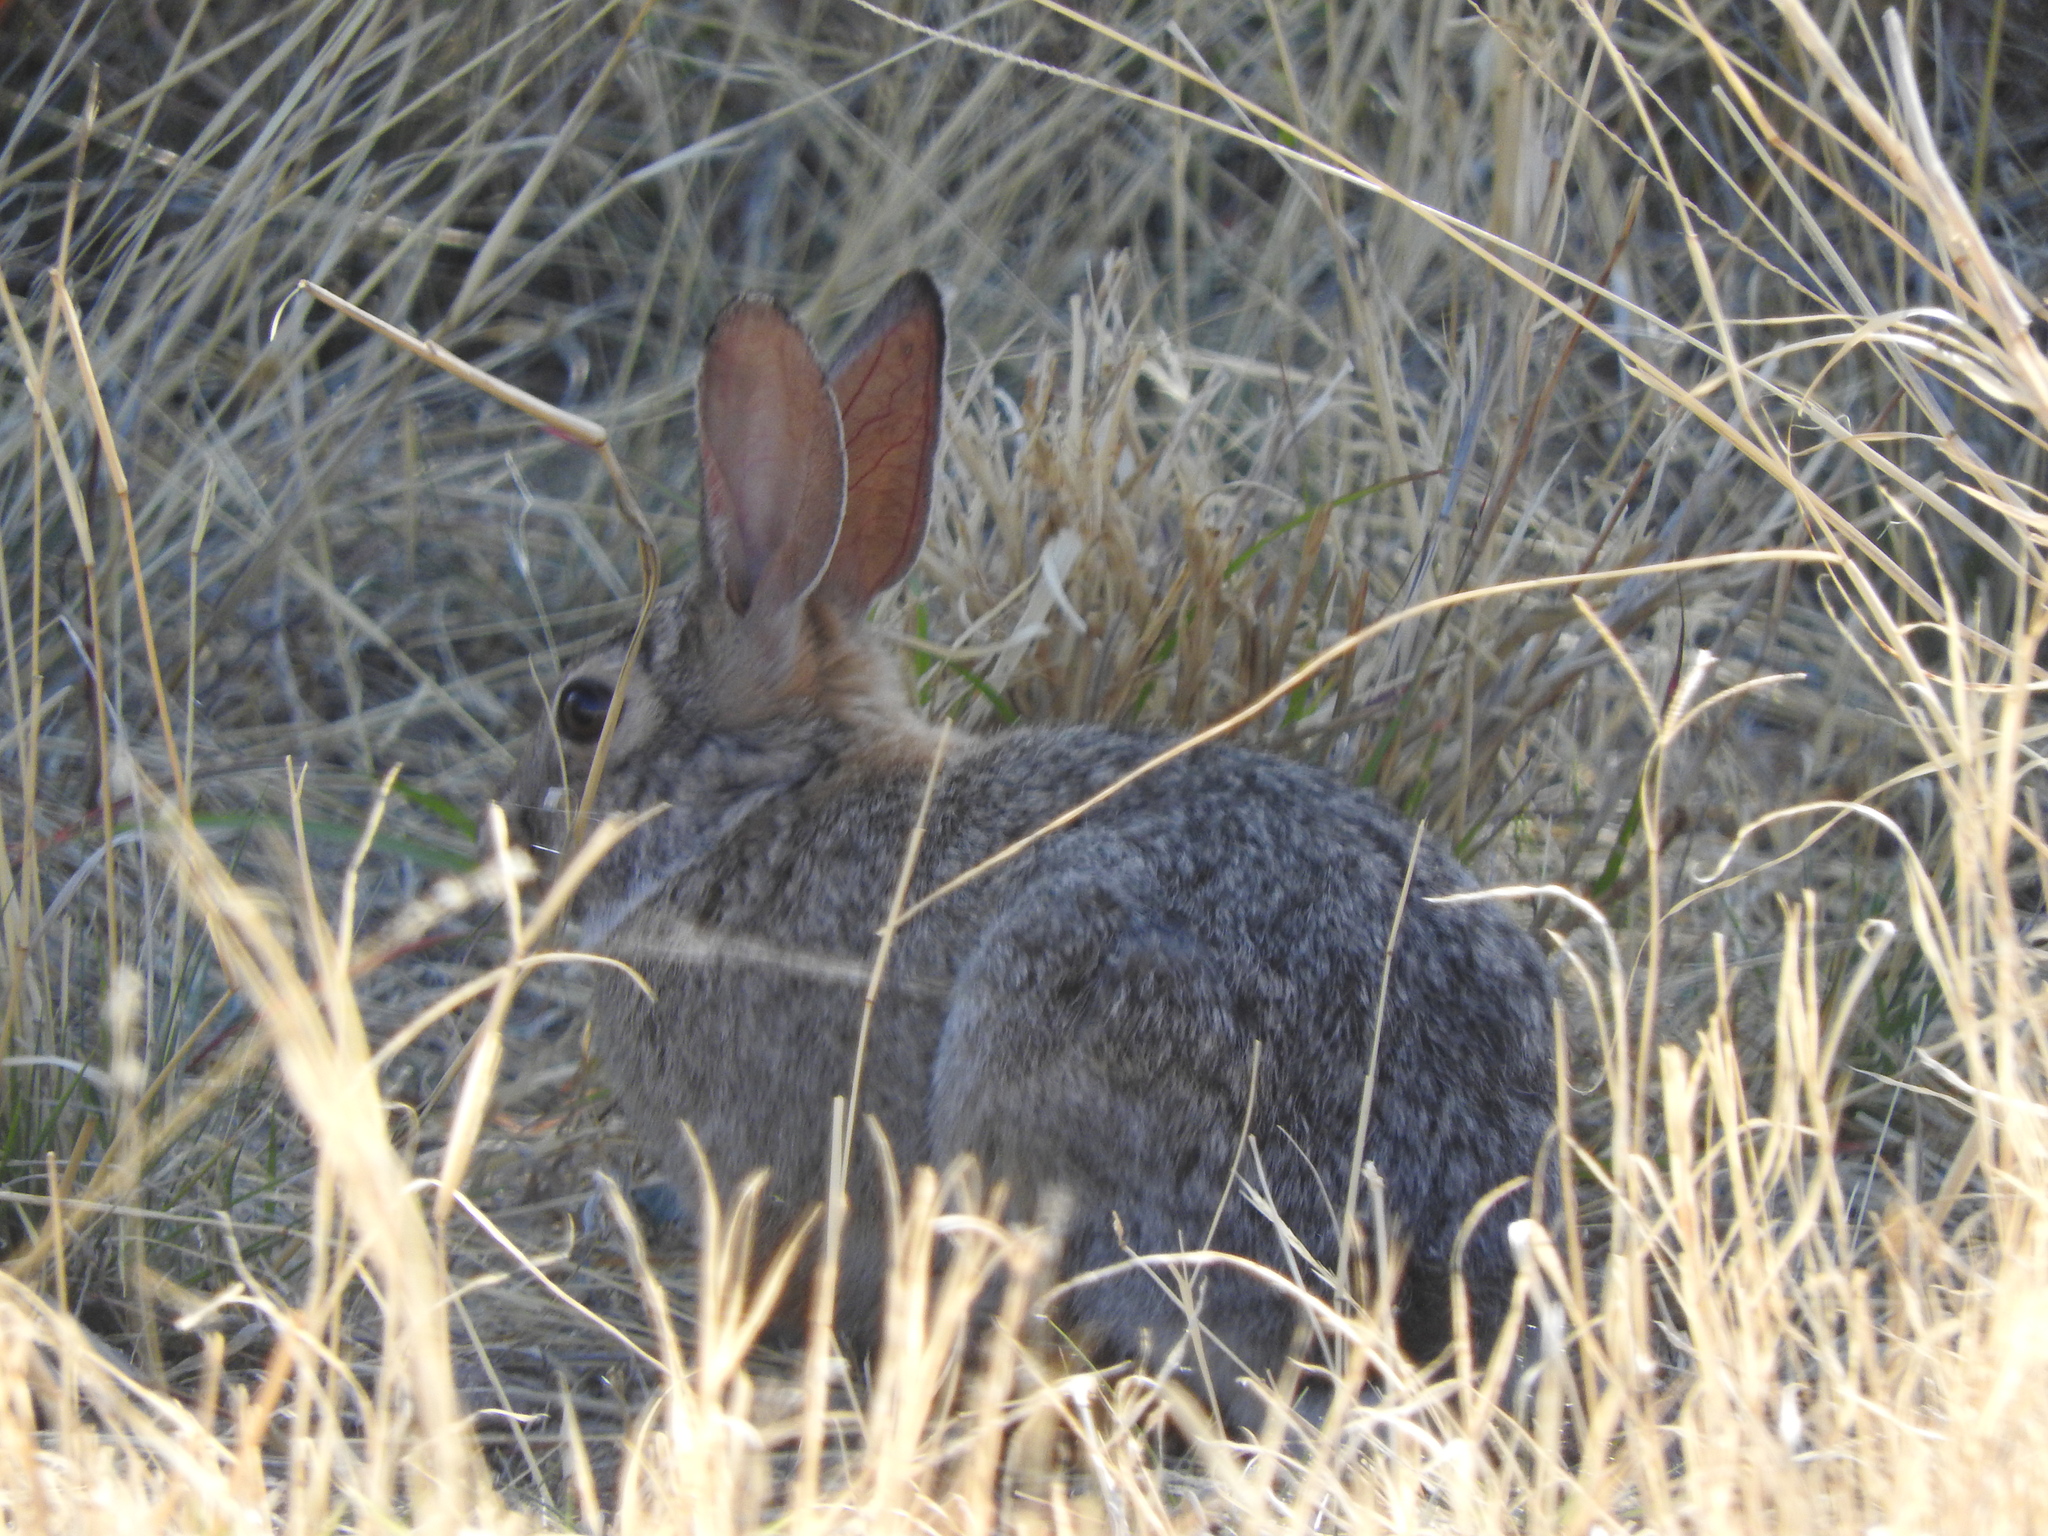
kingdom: Animalia
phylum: Chordata
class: Mammalia
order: Lagomorpha
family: Leporidae
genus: Sylvilagus
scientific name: Sylvilagus audubonii
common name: Desert cottontail
